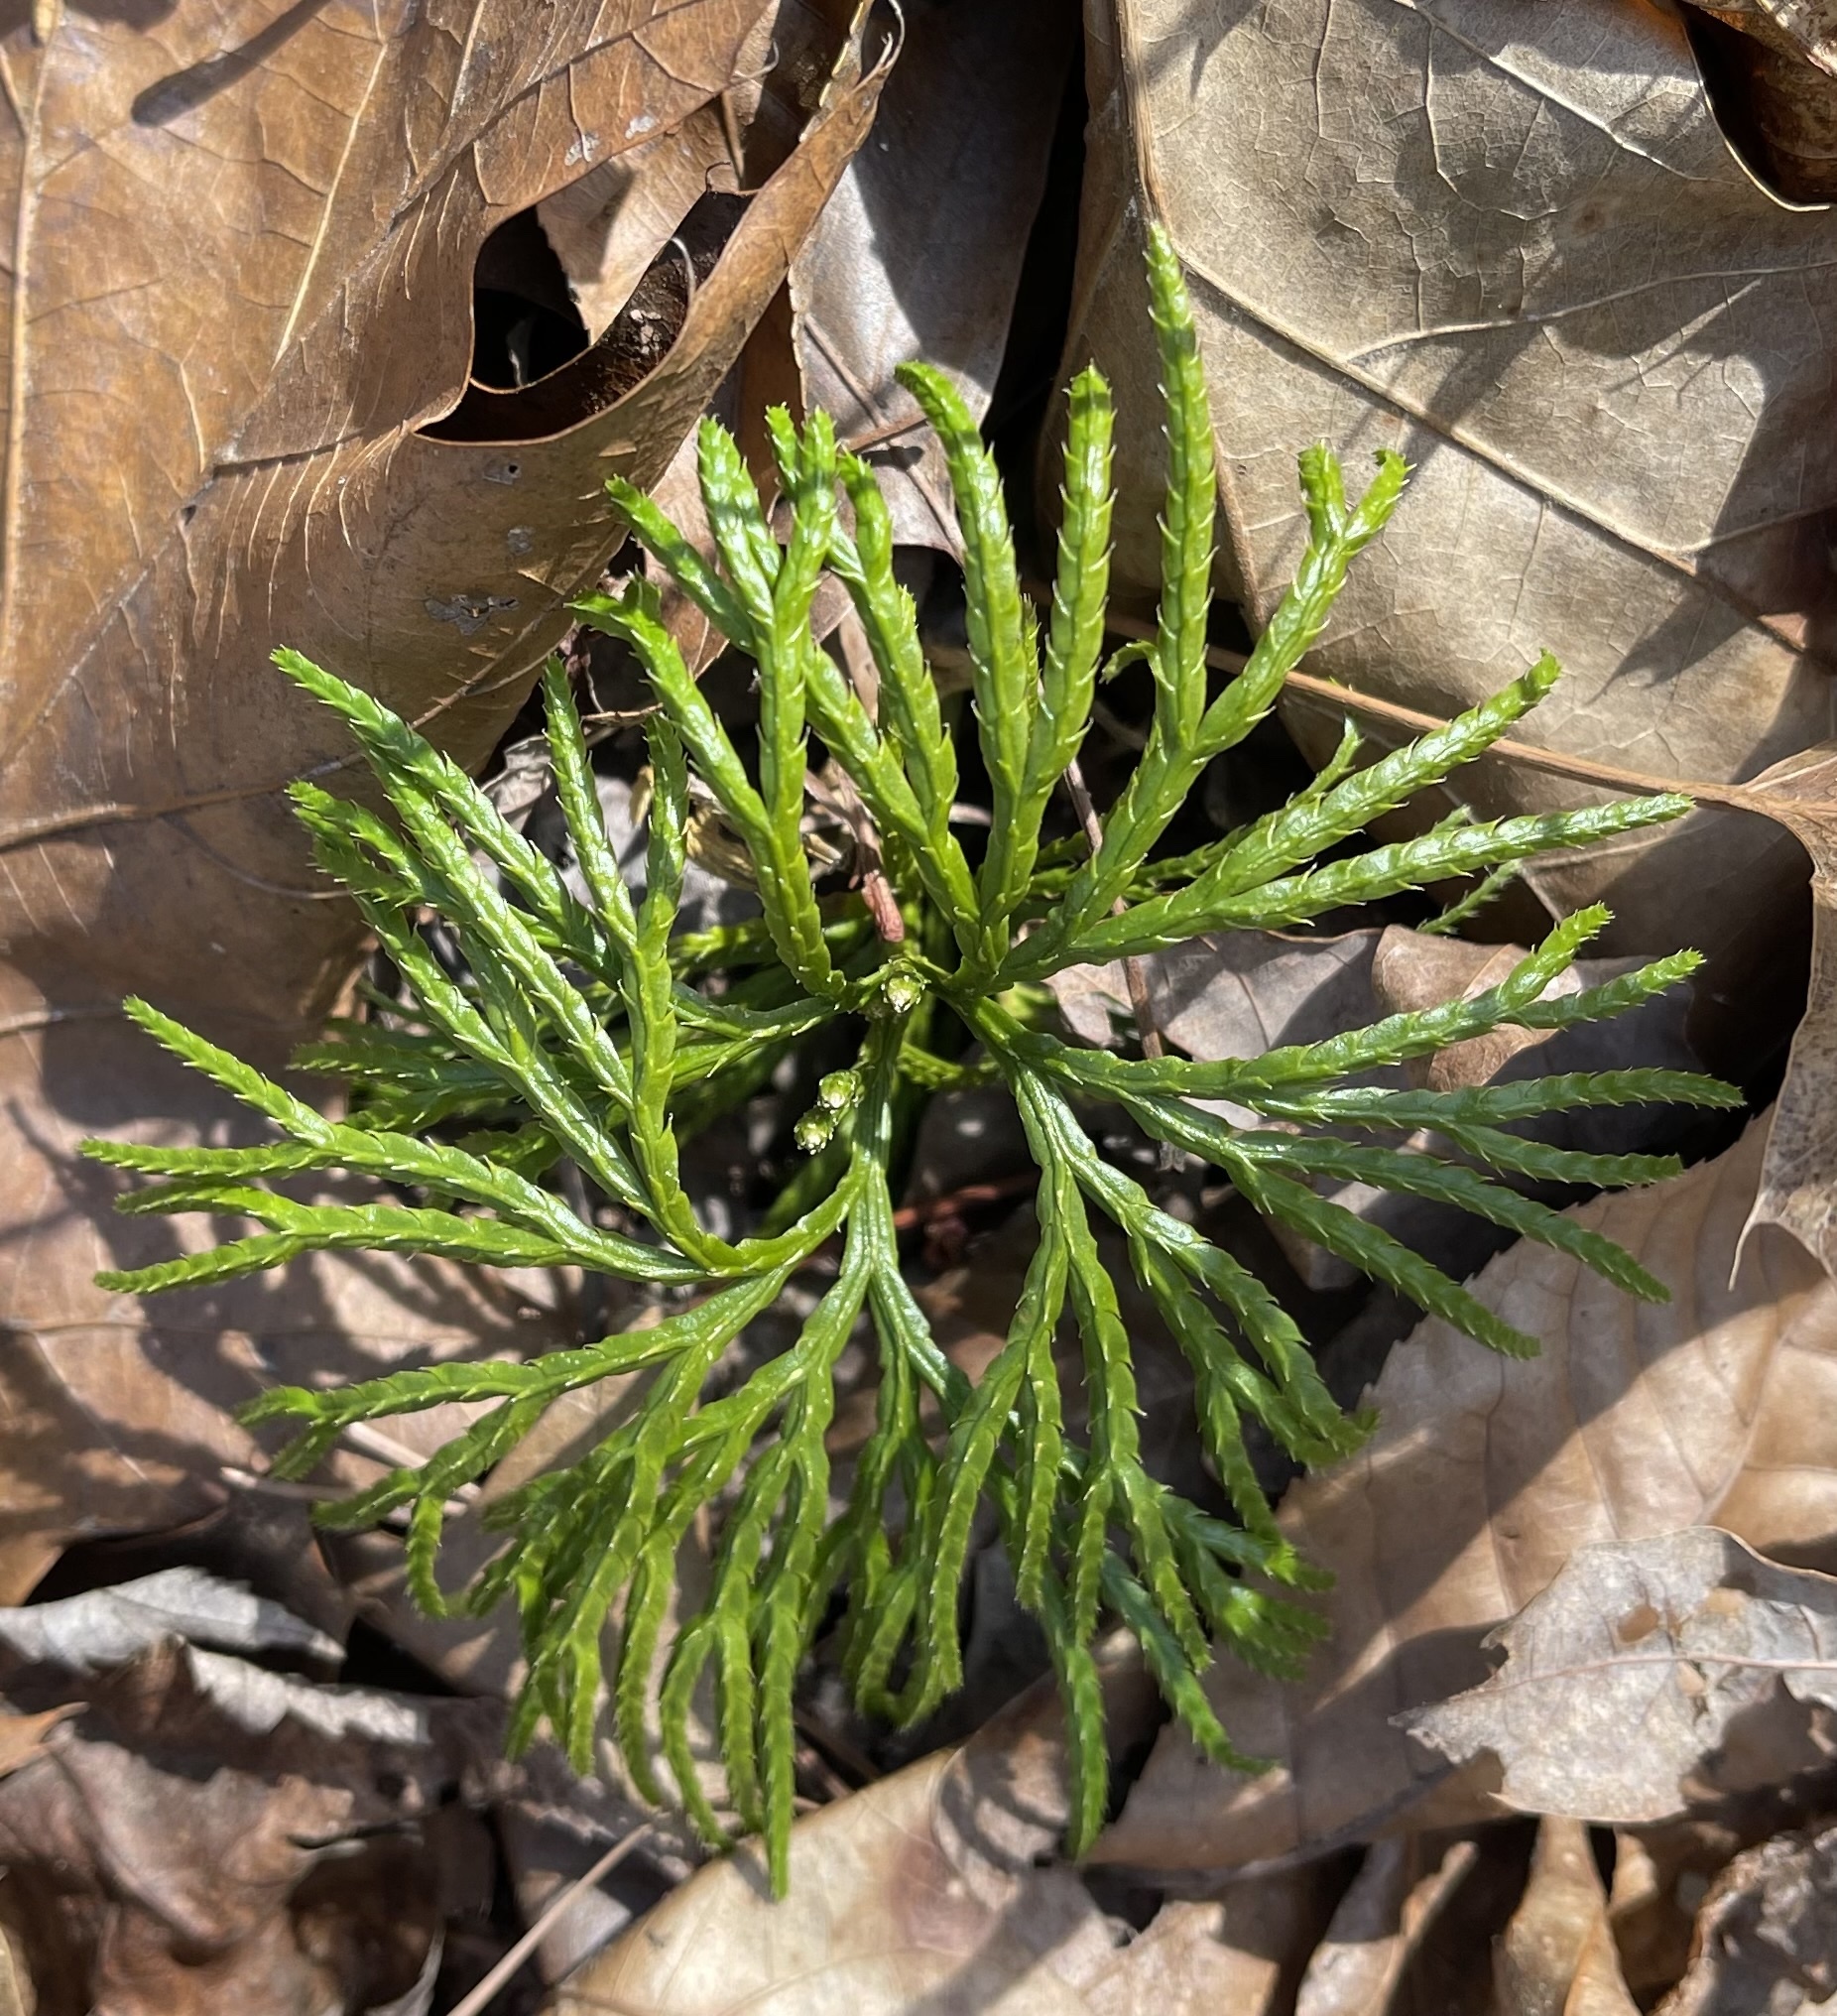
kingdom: Plantae
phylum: Tracheophyta
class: Lycopodiopsida
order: Lycopodiales
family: Lycopodiaceae
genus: Diphasiastrum
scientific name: Diphasiastrum digitatum
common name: Southern running-pine
